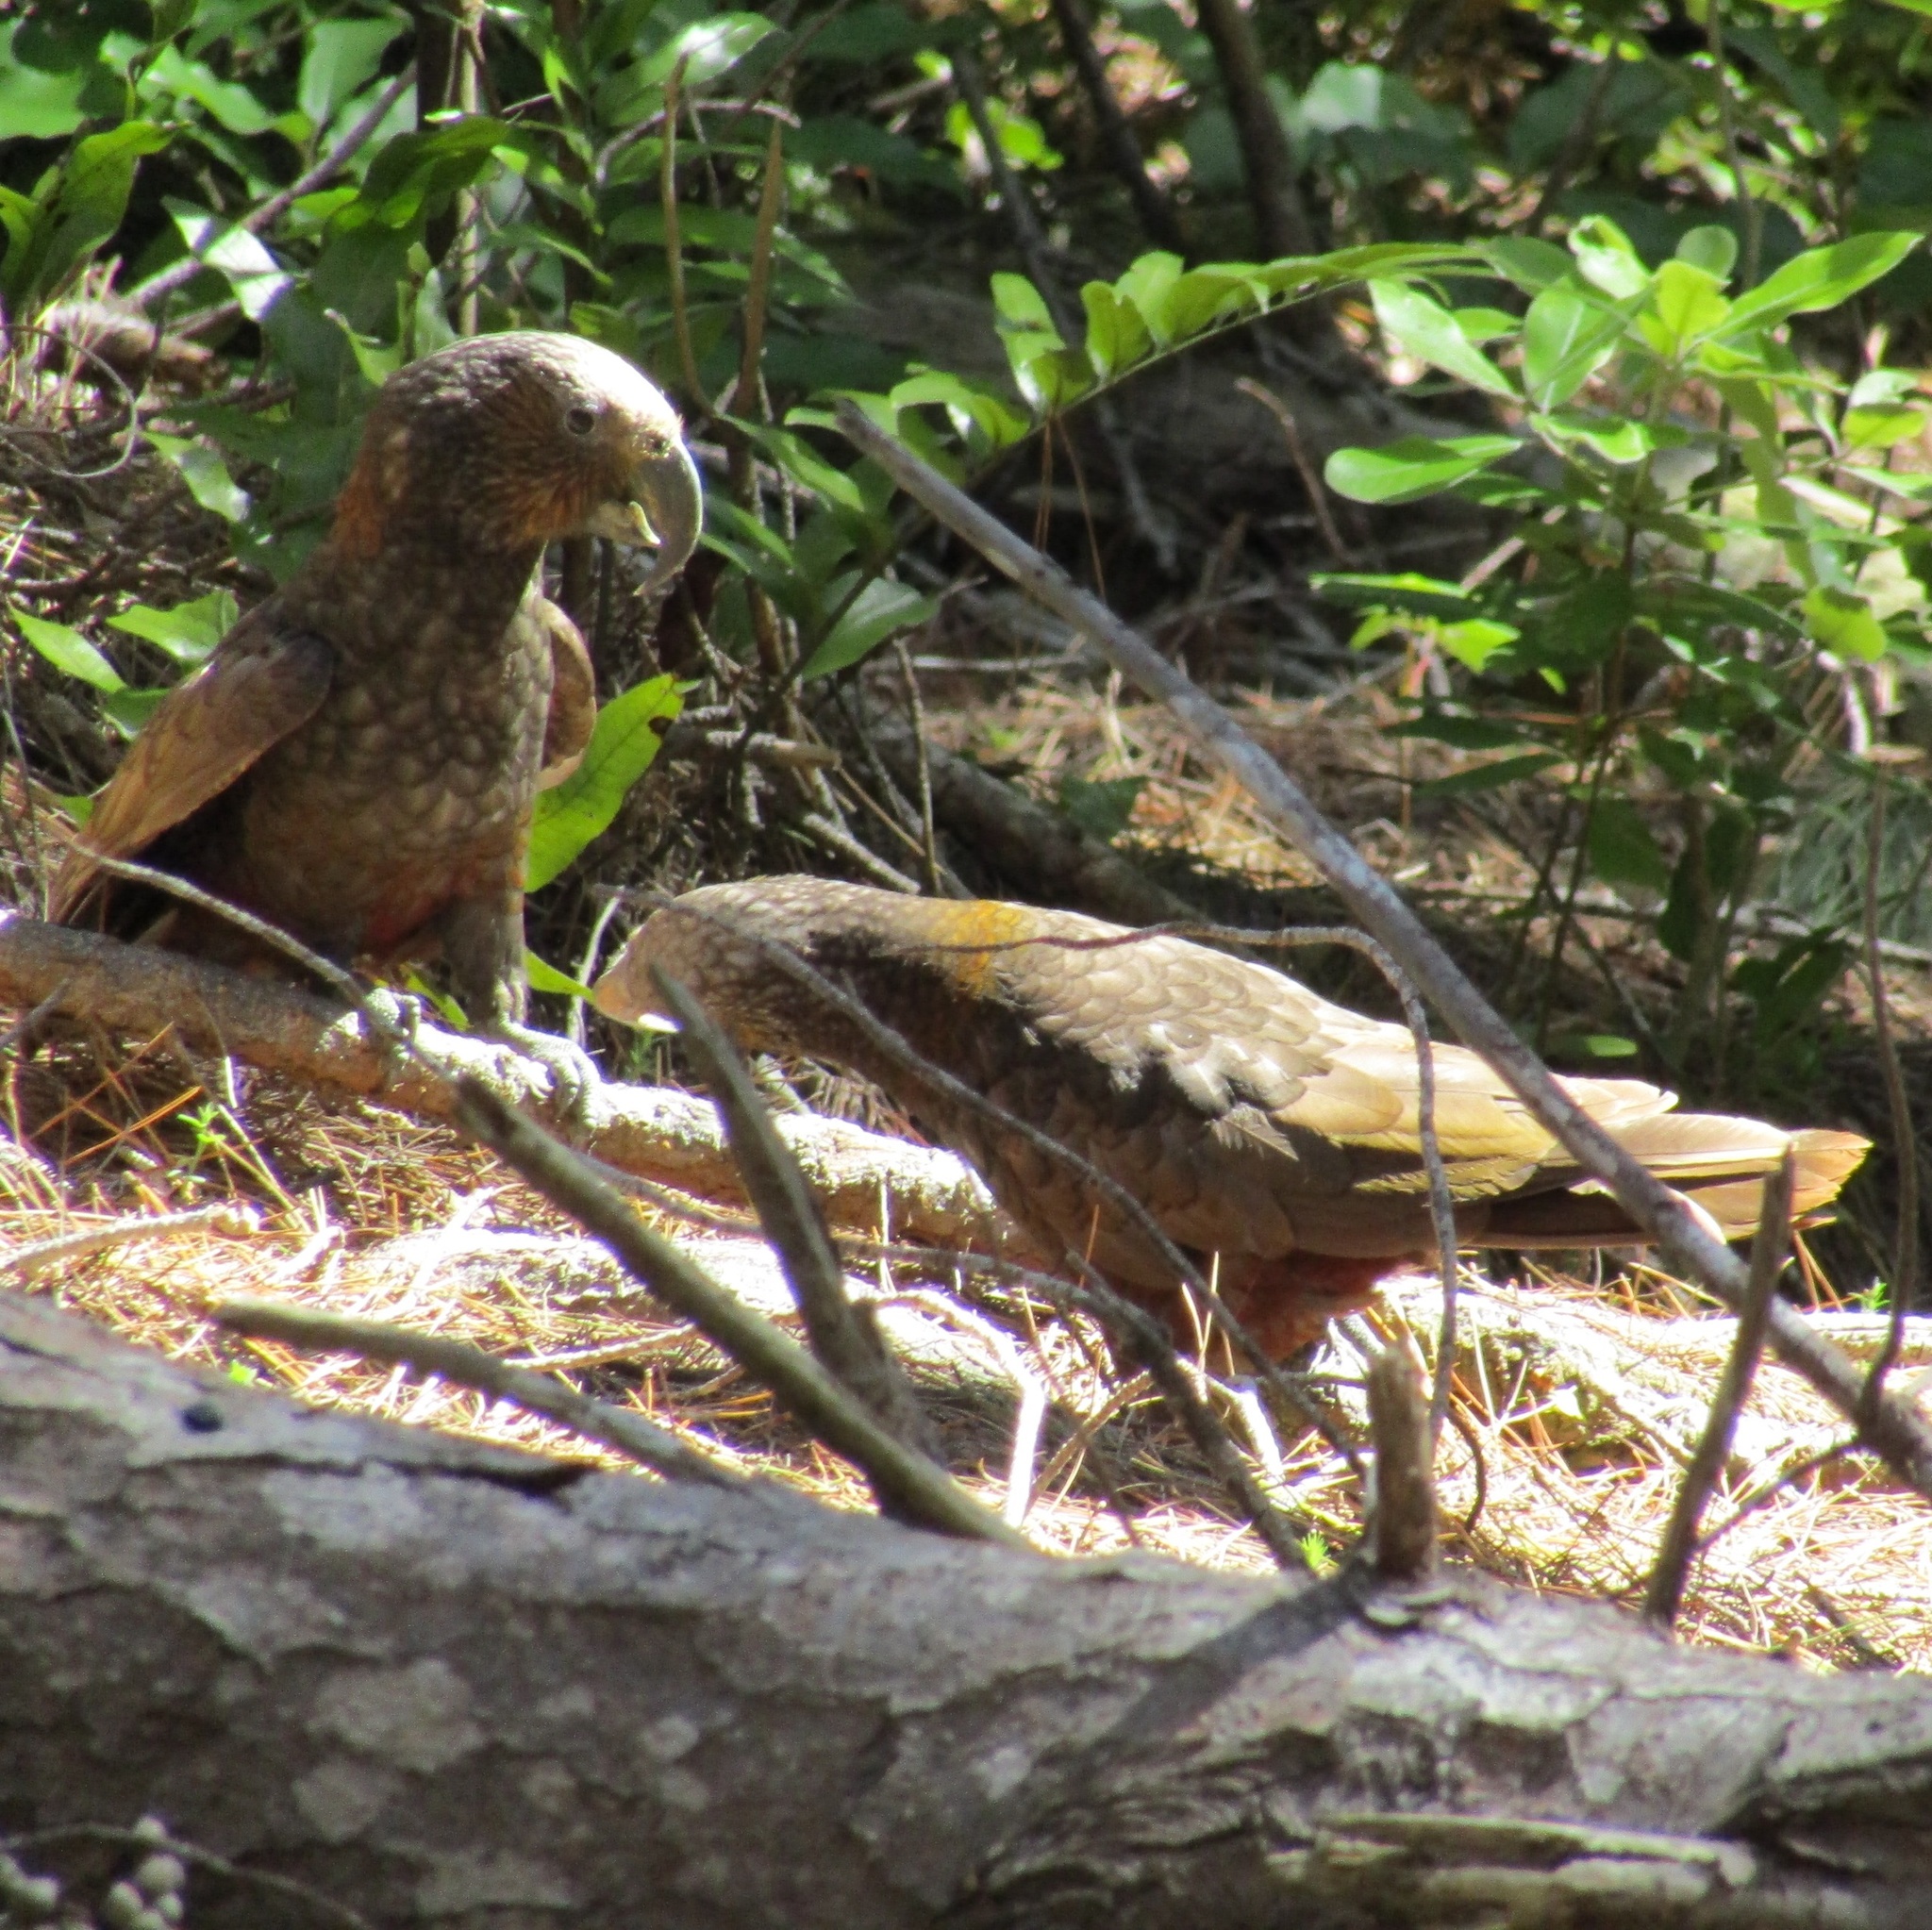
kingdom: Animalia
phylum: Chordata
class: Aves
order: Psittaciformes
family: Psittacidae
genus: Nestor
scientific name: Nestor meridionalis
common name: New zealand kaka
